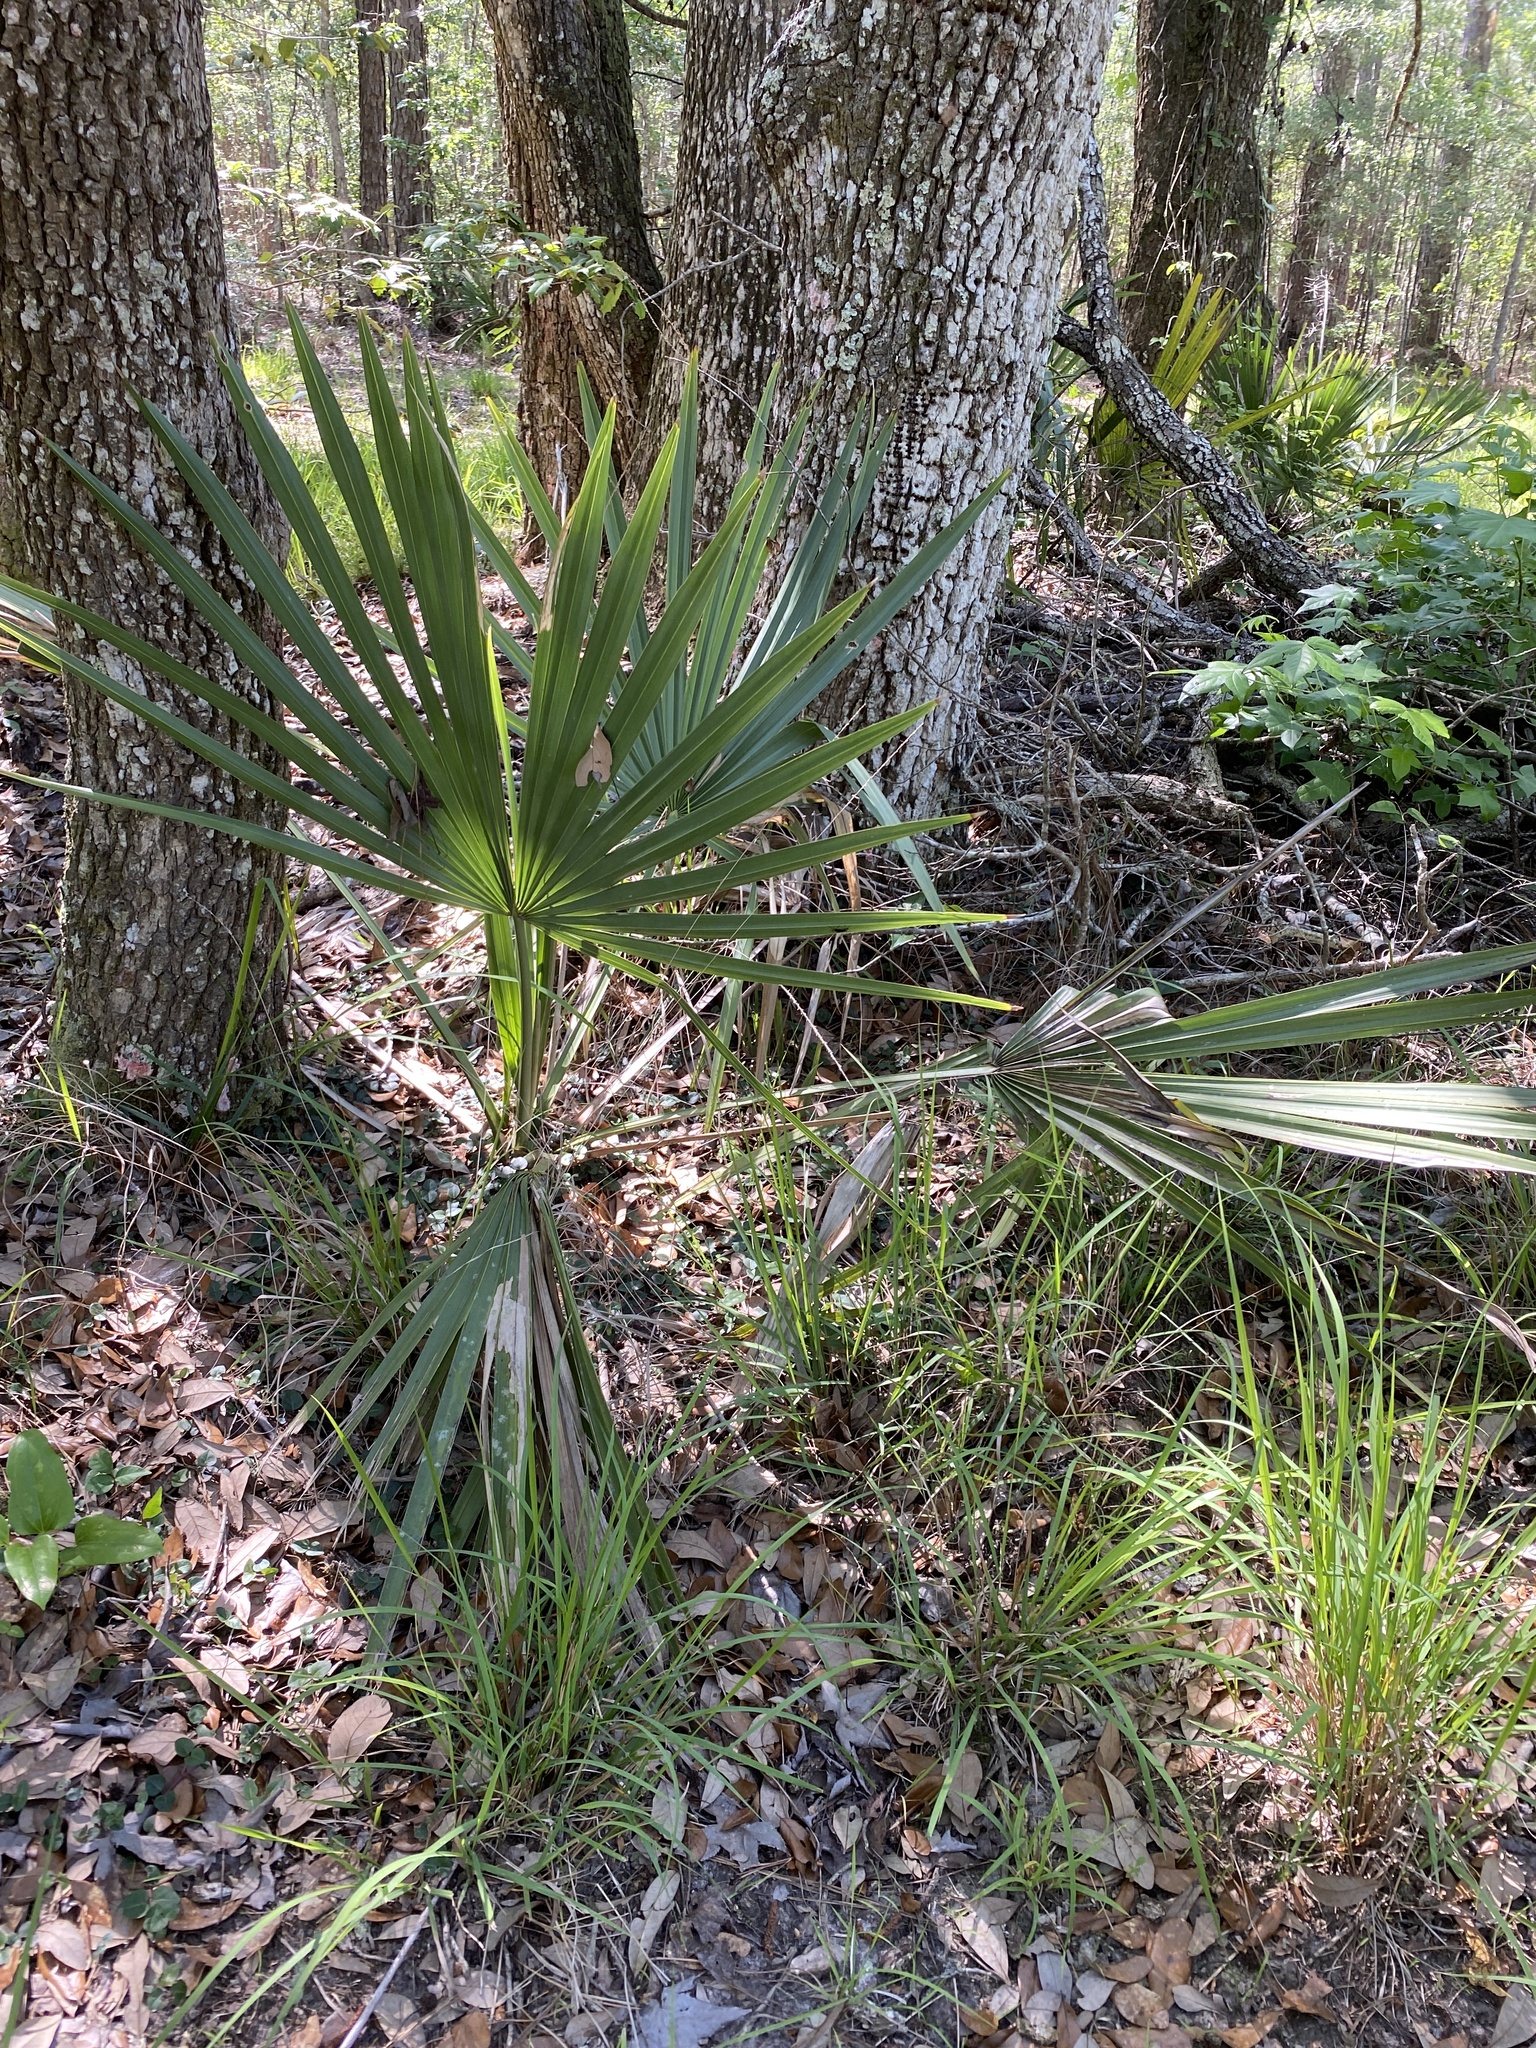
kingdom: Plantae
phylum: Tracheophyta
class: Liliopsida
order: Arecales
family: Arecaceae
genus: Sabal
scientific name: Sabal minor
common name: Dwarf palmetto
